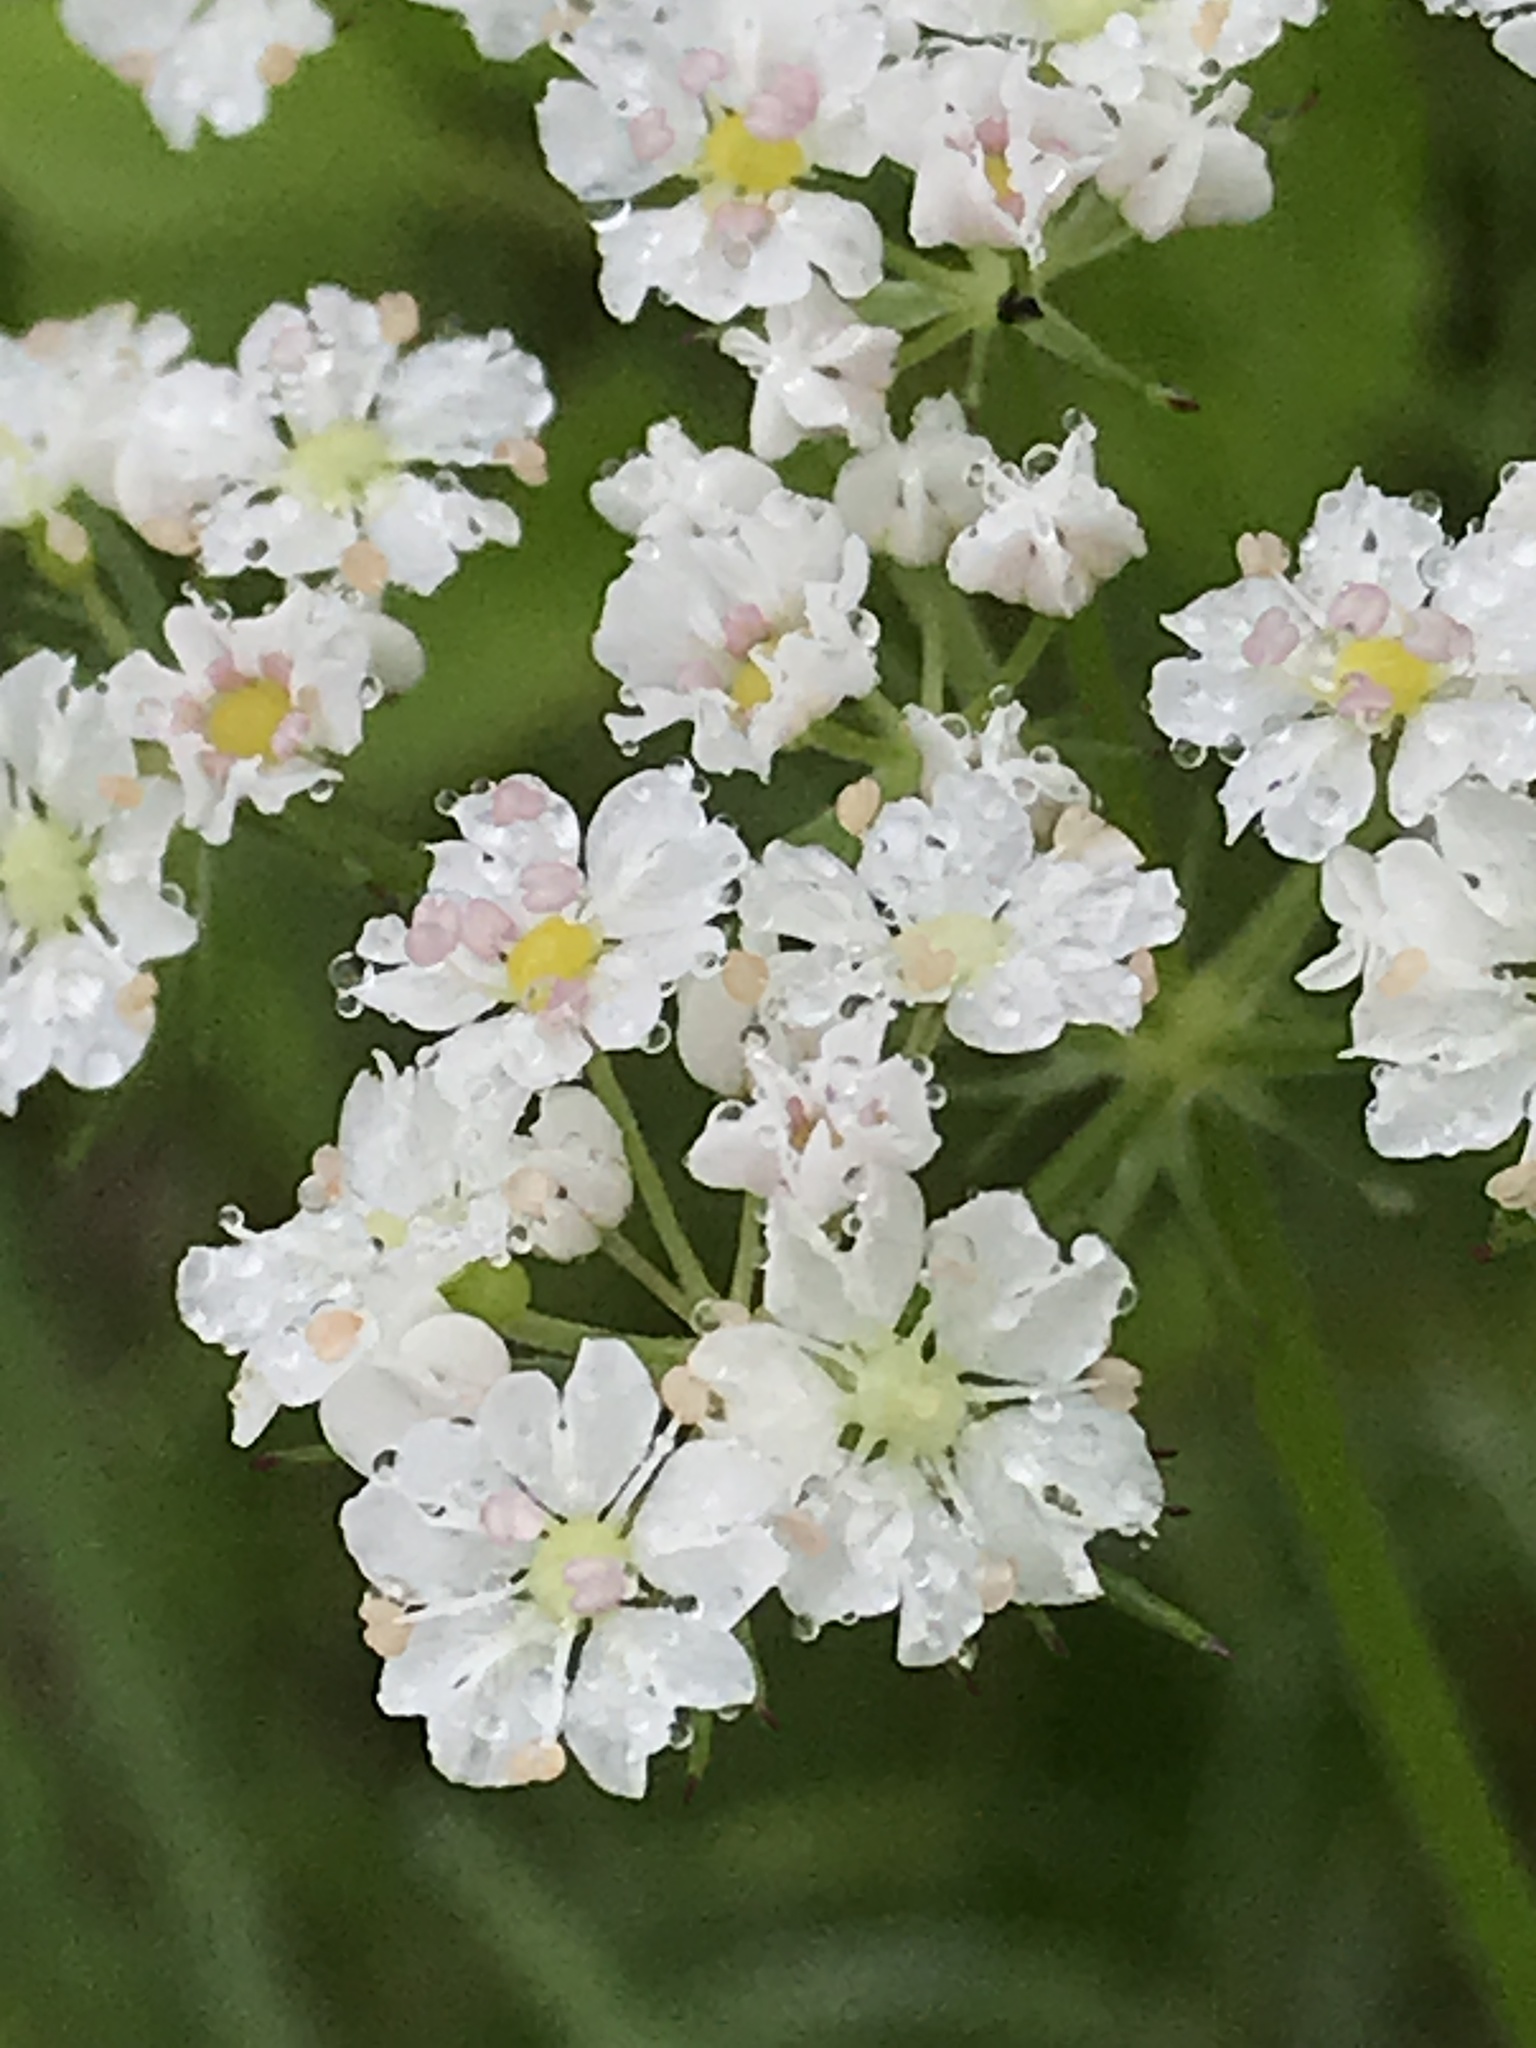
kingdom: Plantae
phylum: Tracheophyta
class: Magnoliopsida
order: Apiales
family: Apiaceae
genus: Atrema
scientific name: Atrema americanum
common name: Prairie-bishop
